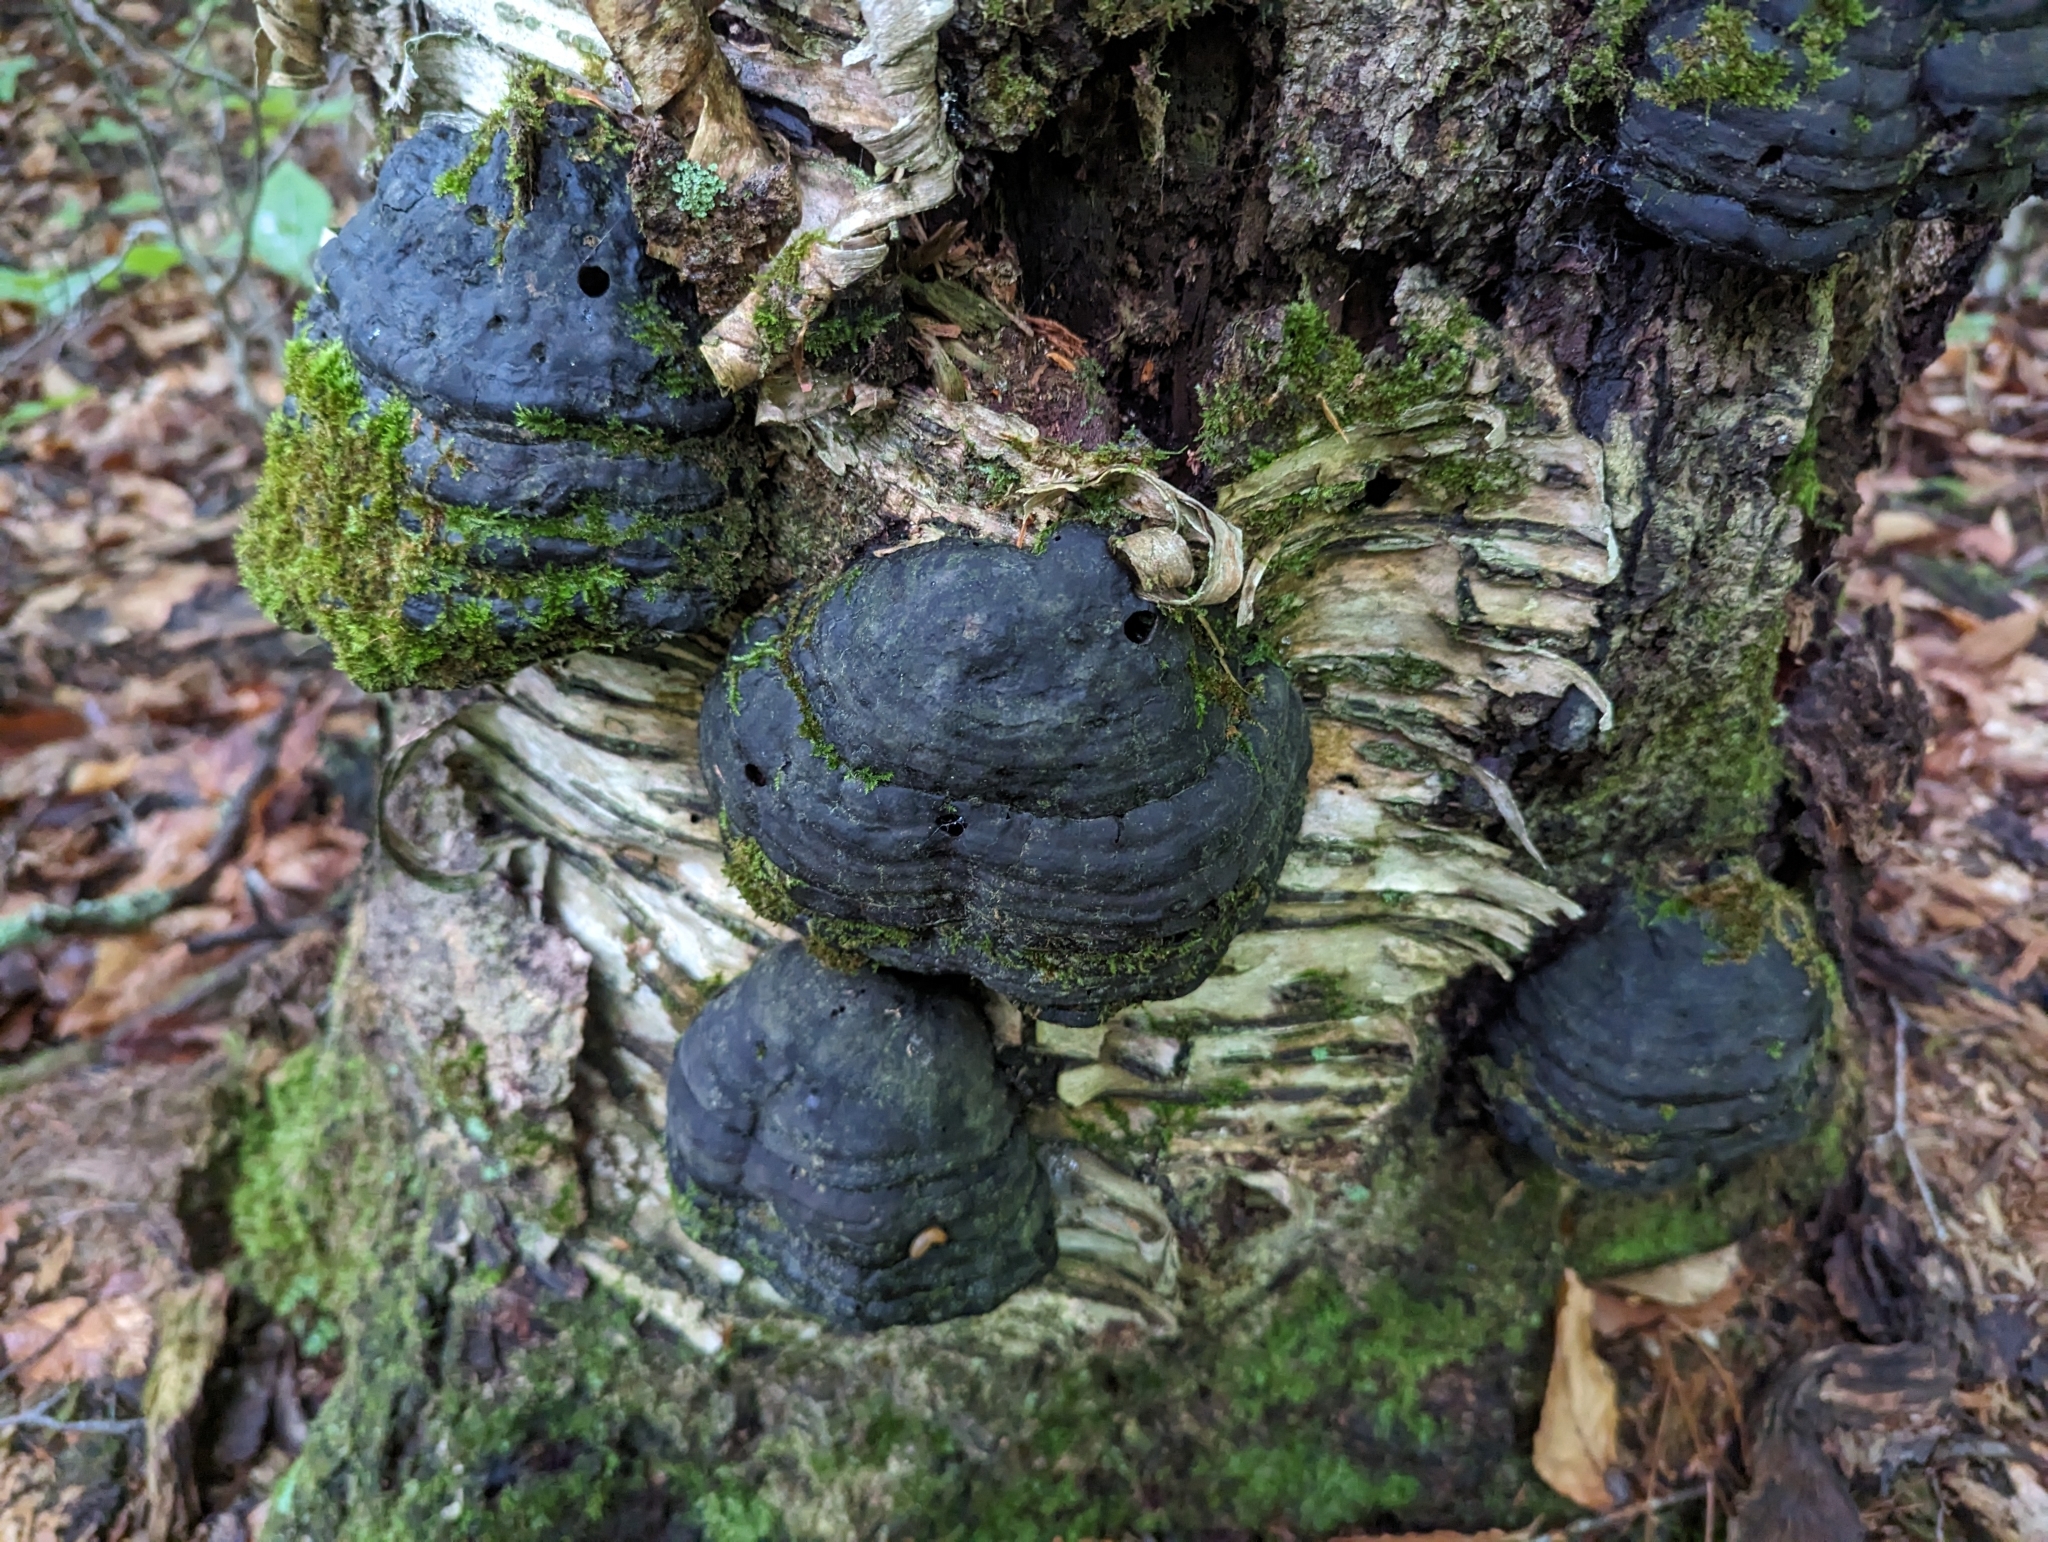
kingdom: Fungi
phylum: Basidiomycota
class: Agaricomycetes
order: Polyporales
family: Polyporaceae
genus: Fomes
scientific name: Fomes fomentarius
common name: Hoof fungus
